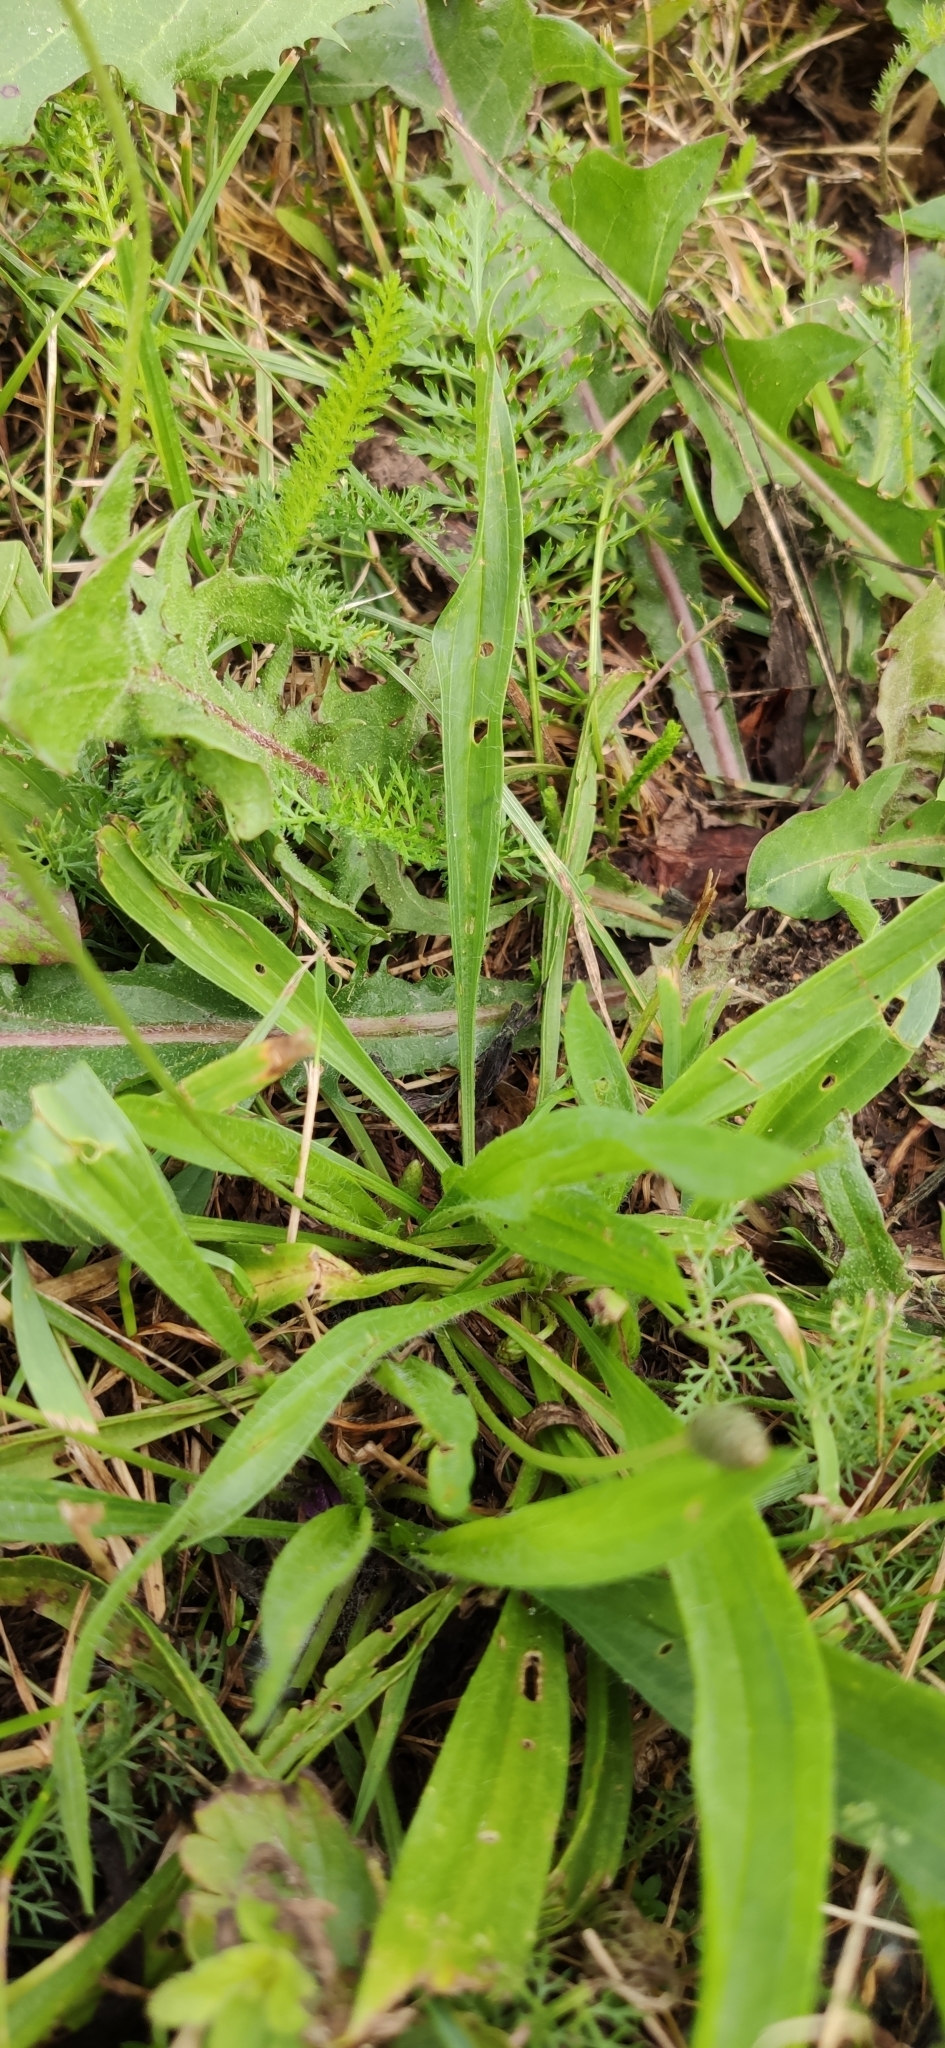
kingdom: Plantae
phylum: Tracheophyta
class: Magnoliopsida
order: Lamiales
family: Plantaginaceae
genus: Plantago
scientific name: Plantago lanceolata
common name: Ribwort plantain
